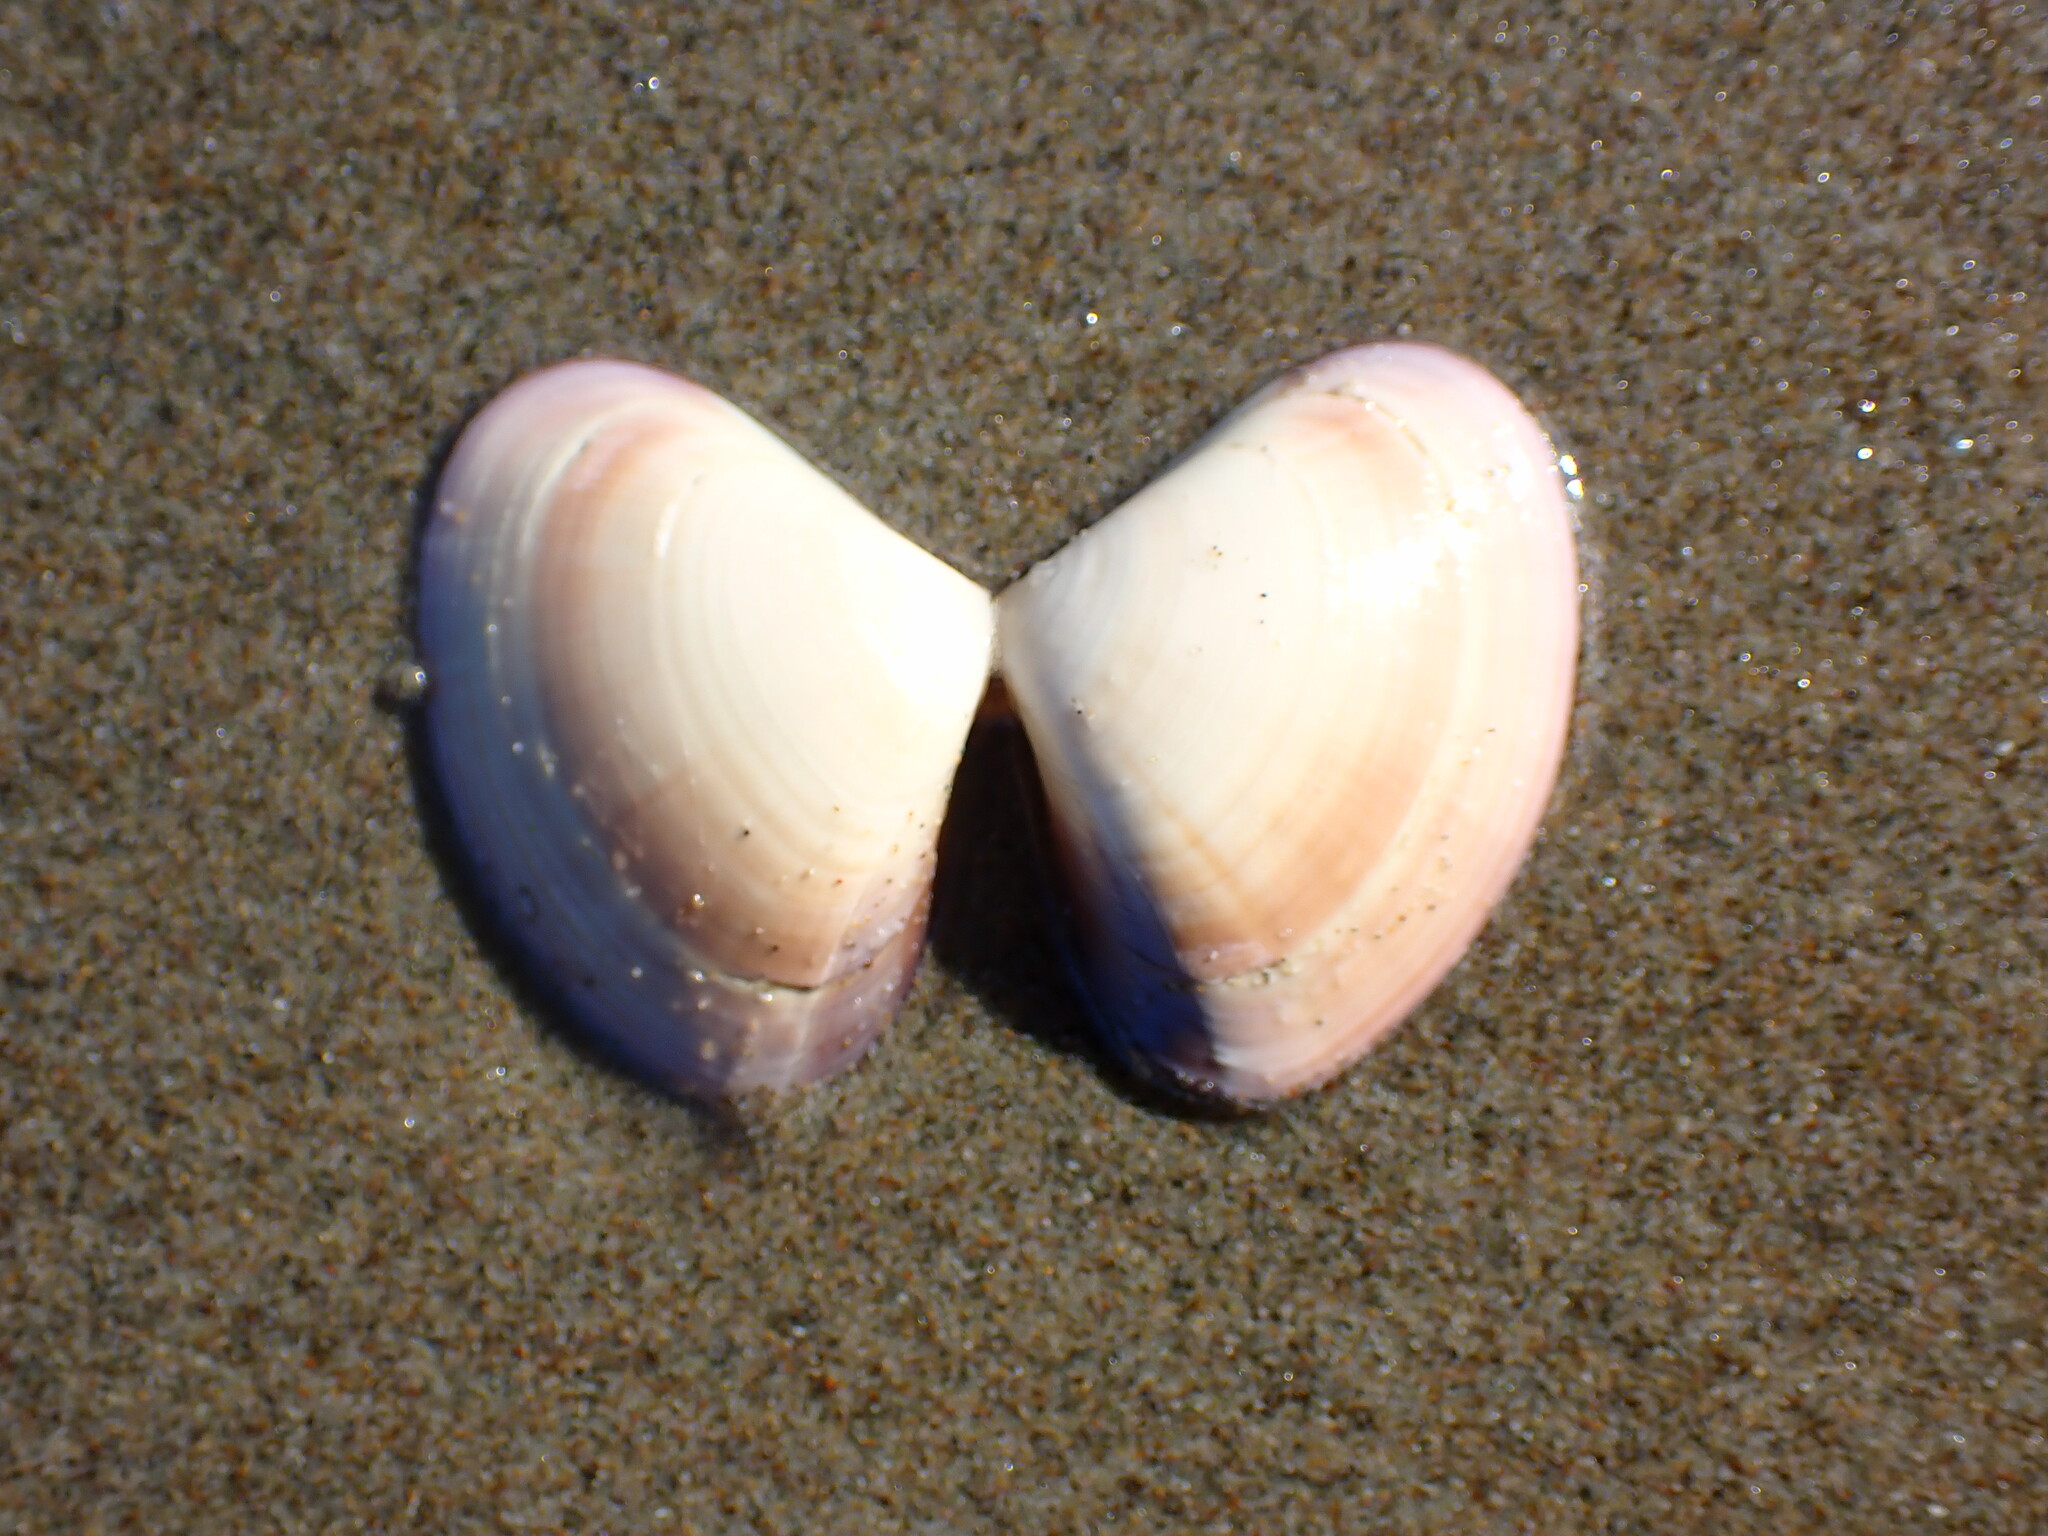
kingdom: Animalia
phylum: Mollusca
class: Bivalvia
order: Venerida
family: Veneridae
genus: Tivela
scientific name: Tivela stultorum
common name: Pismo clam
